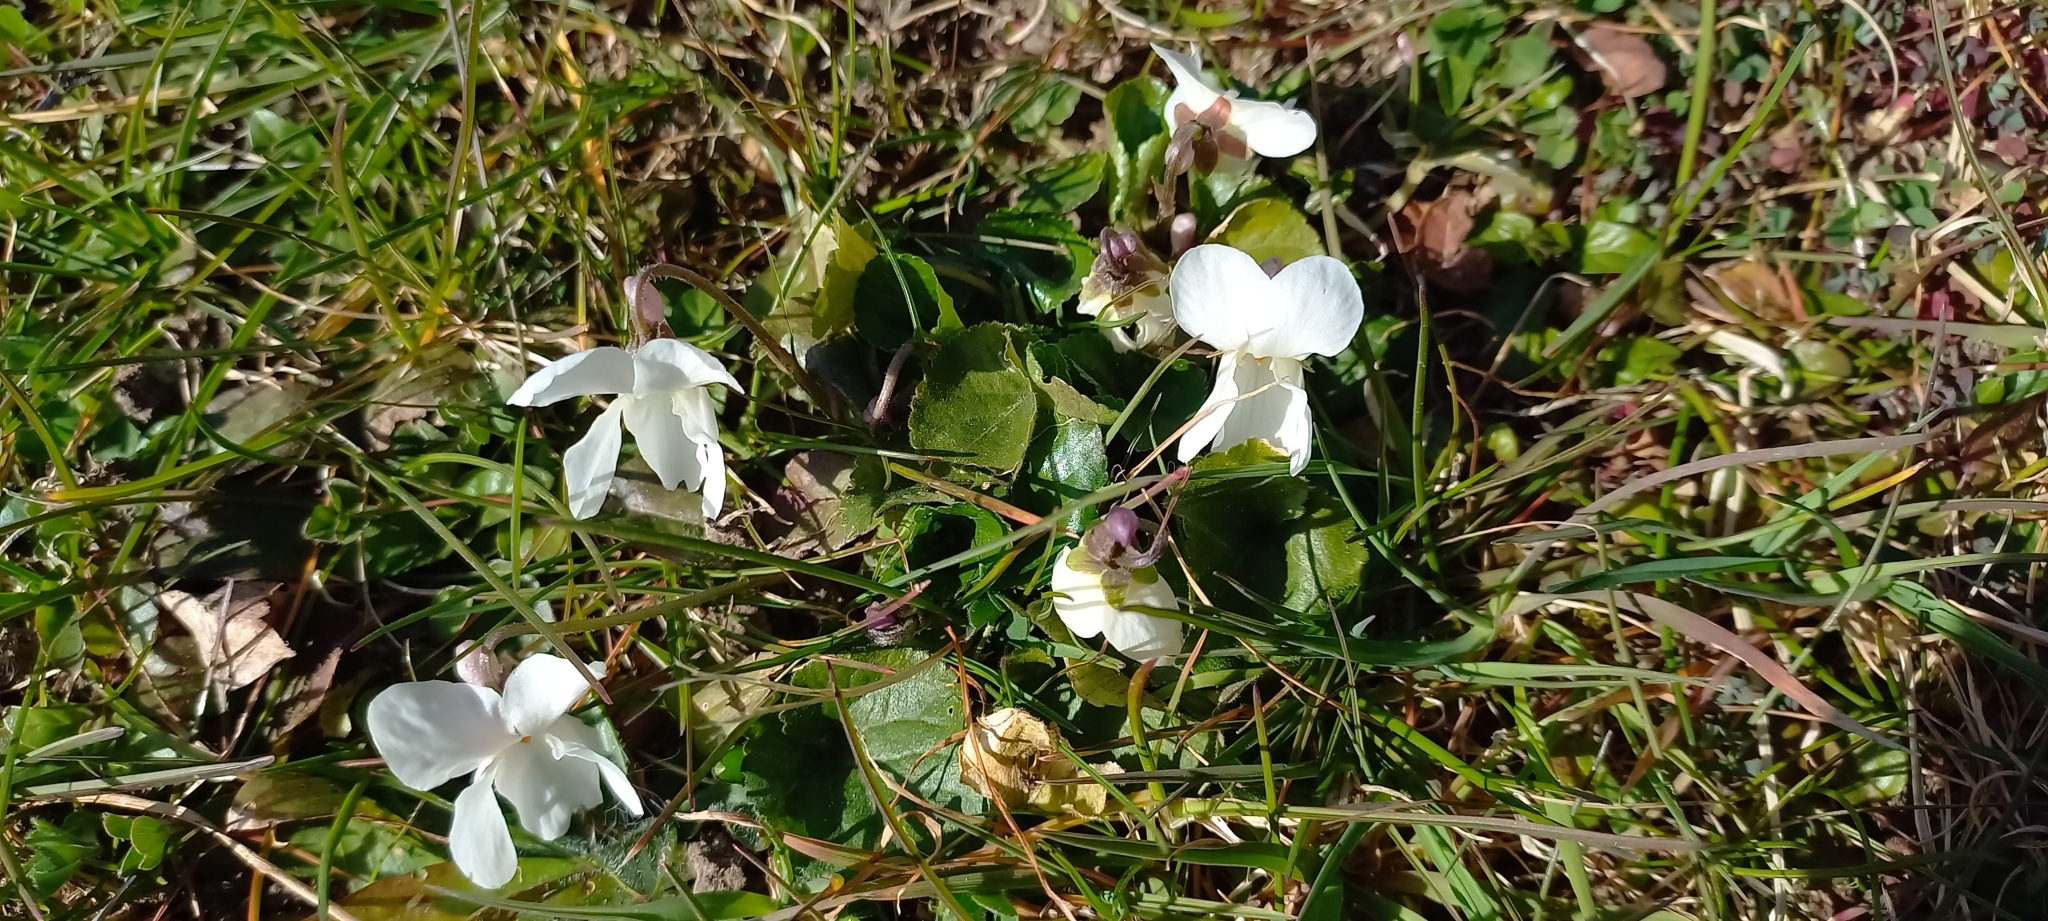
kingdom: Plantae
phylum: Tracheophyta
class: Magnoliopsida
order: Malpighiales
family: Violaceae
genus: Viola
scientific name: Viola odorata
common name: Sweet violet
